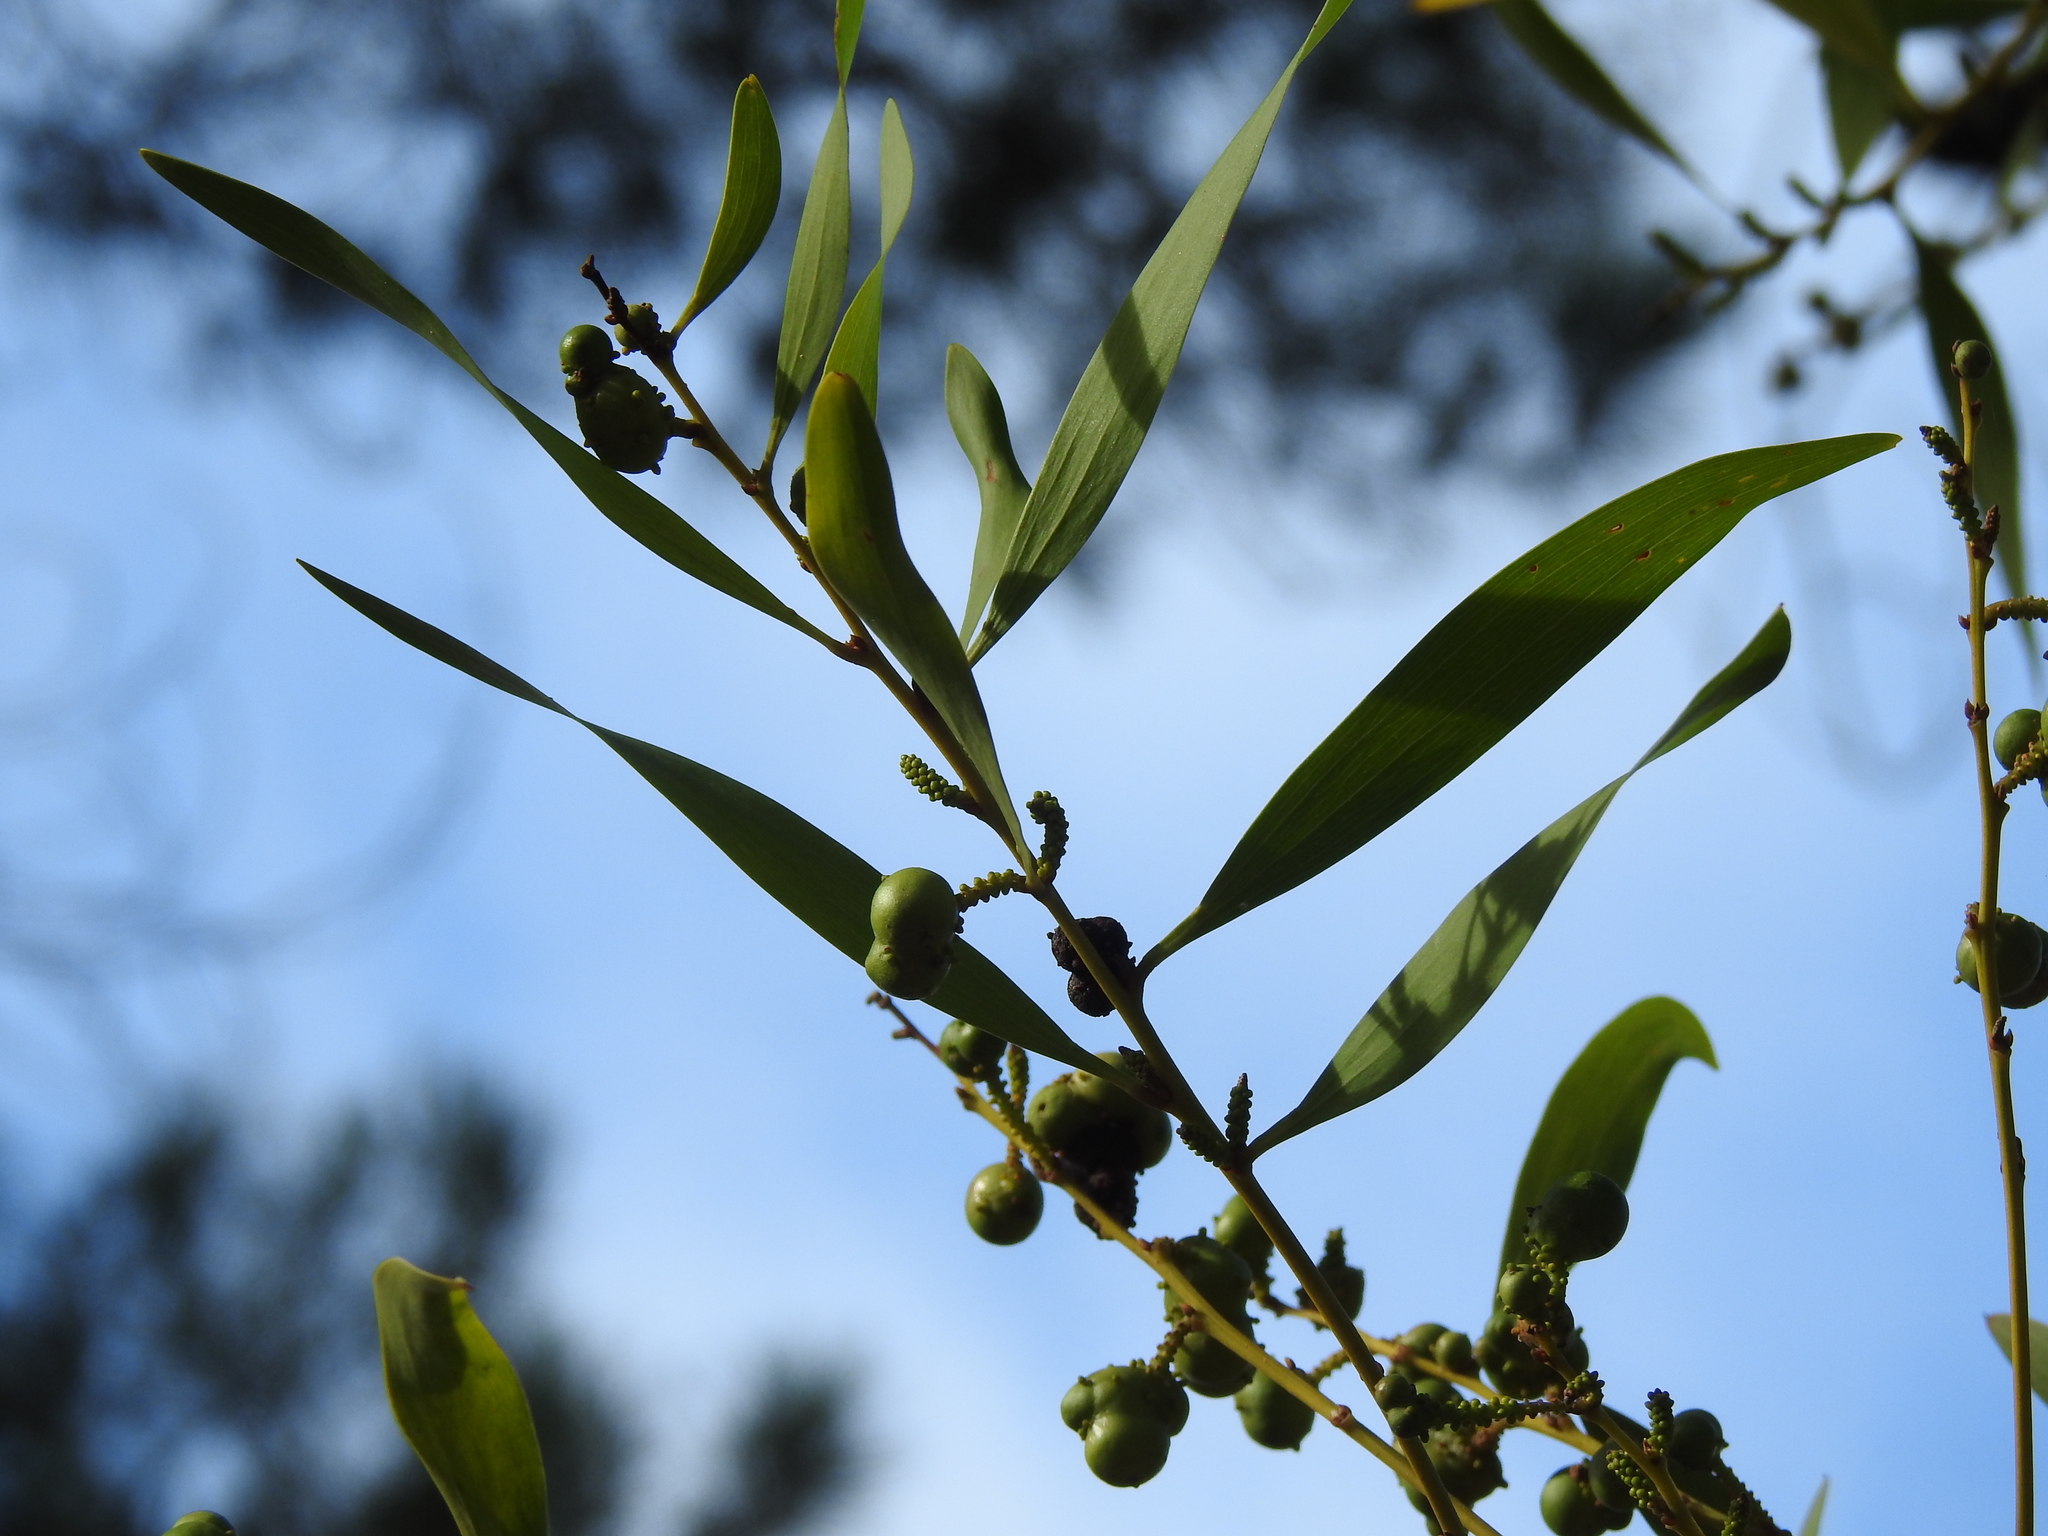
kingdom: Plantae
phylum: Tracheophyta
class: Magnoliopsida
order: Fabales
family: Fabaceae
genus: Acacia
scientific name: Acacia longifolia
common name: Sydney golden wattle
